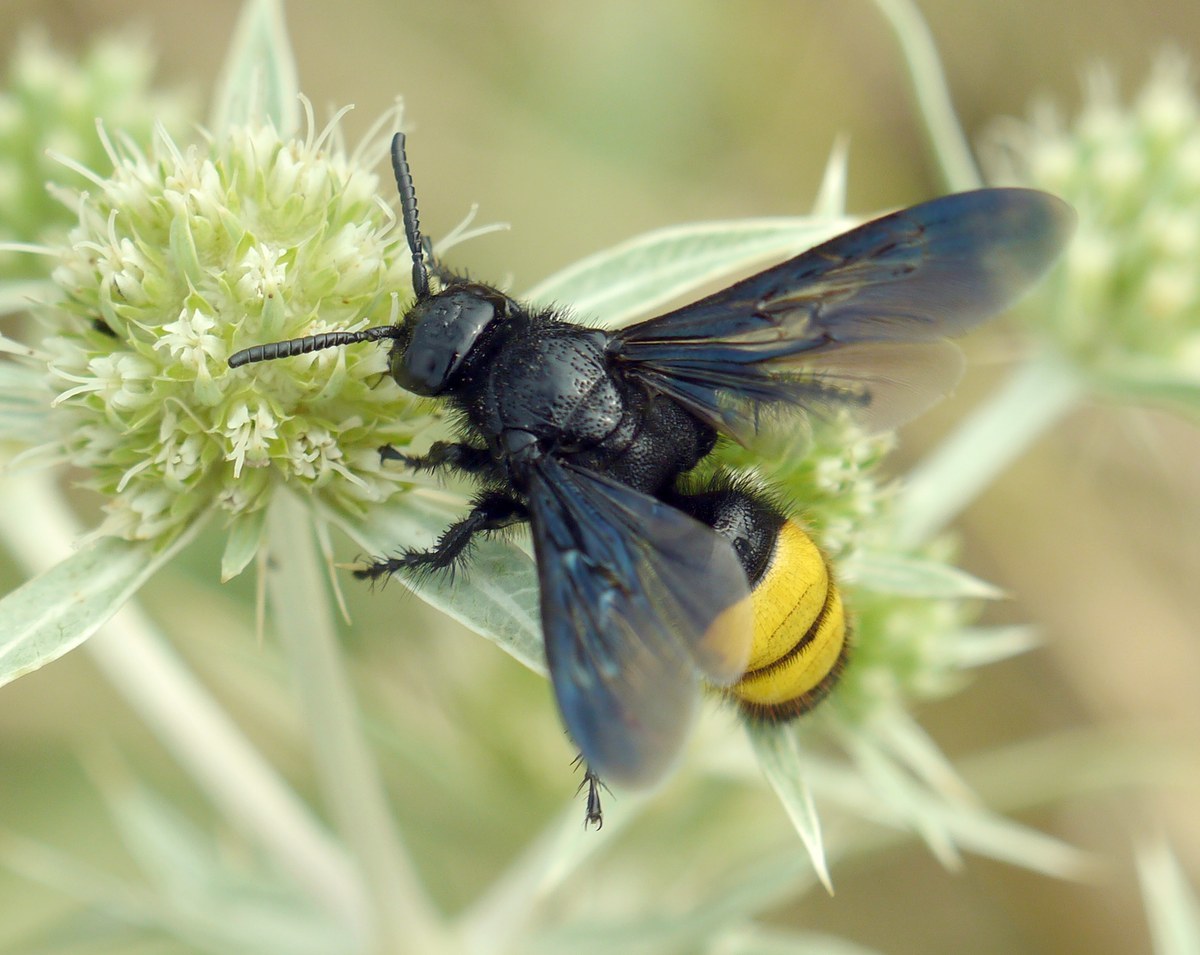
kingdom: Animalia
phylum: Arthropoda
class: Insecta
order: Hymenoptera
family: Scoliidae
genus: Scolia
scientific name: Scolia hirta
